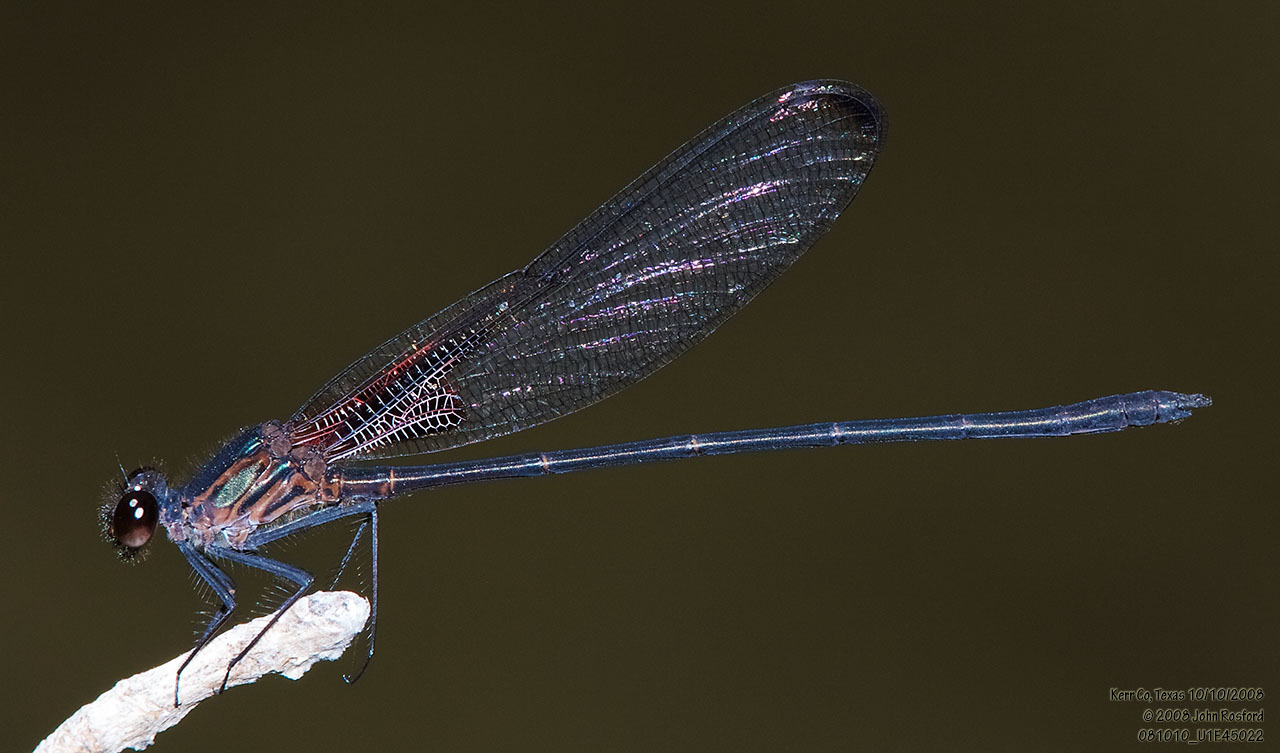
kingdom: Animalia
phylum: Arthropoda
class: Insecta
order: Odonata
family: Calopterygidae
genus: Hetaerina
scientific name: Hetaerina titia
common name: Smoky rubyspot
